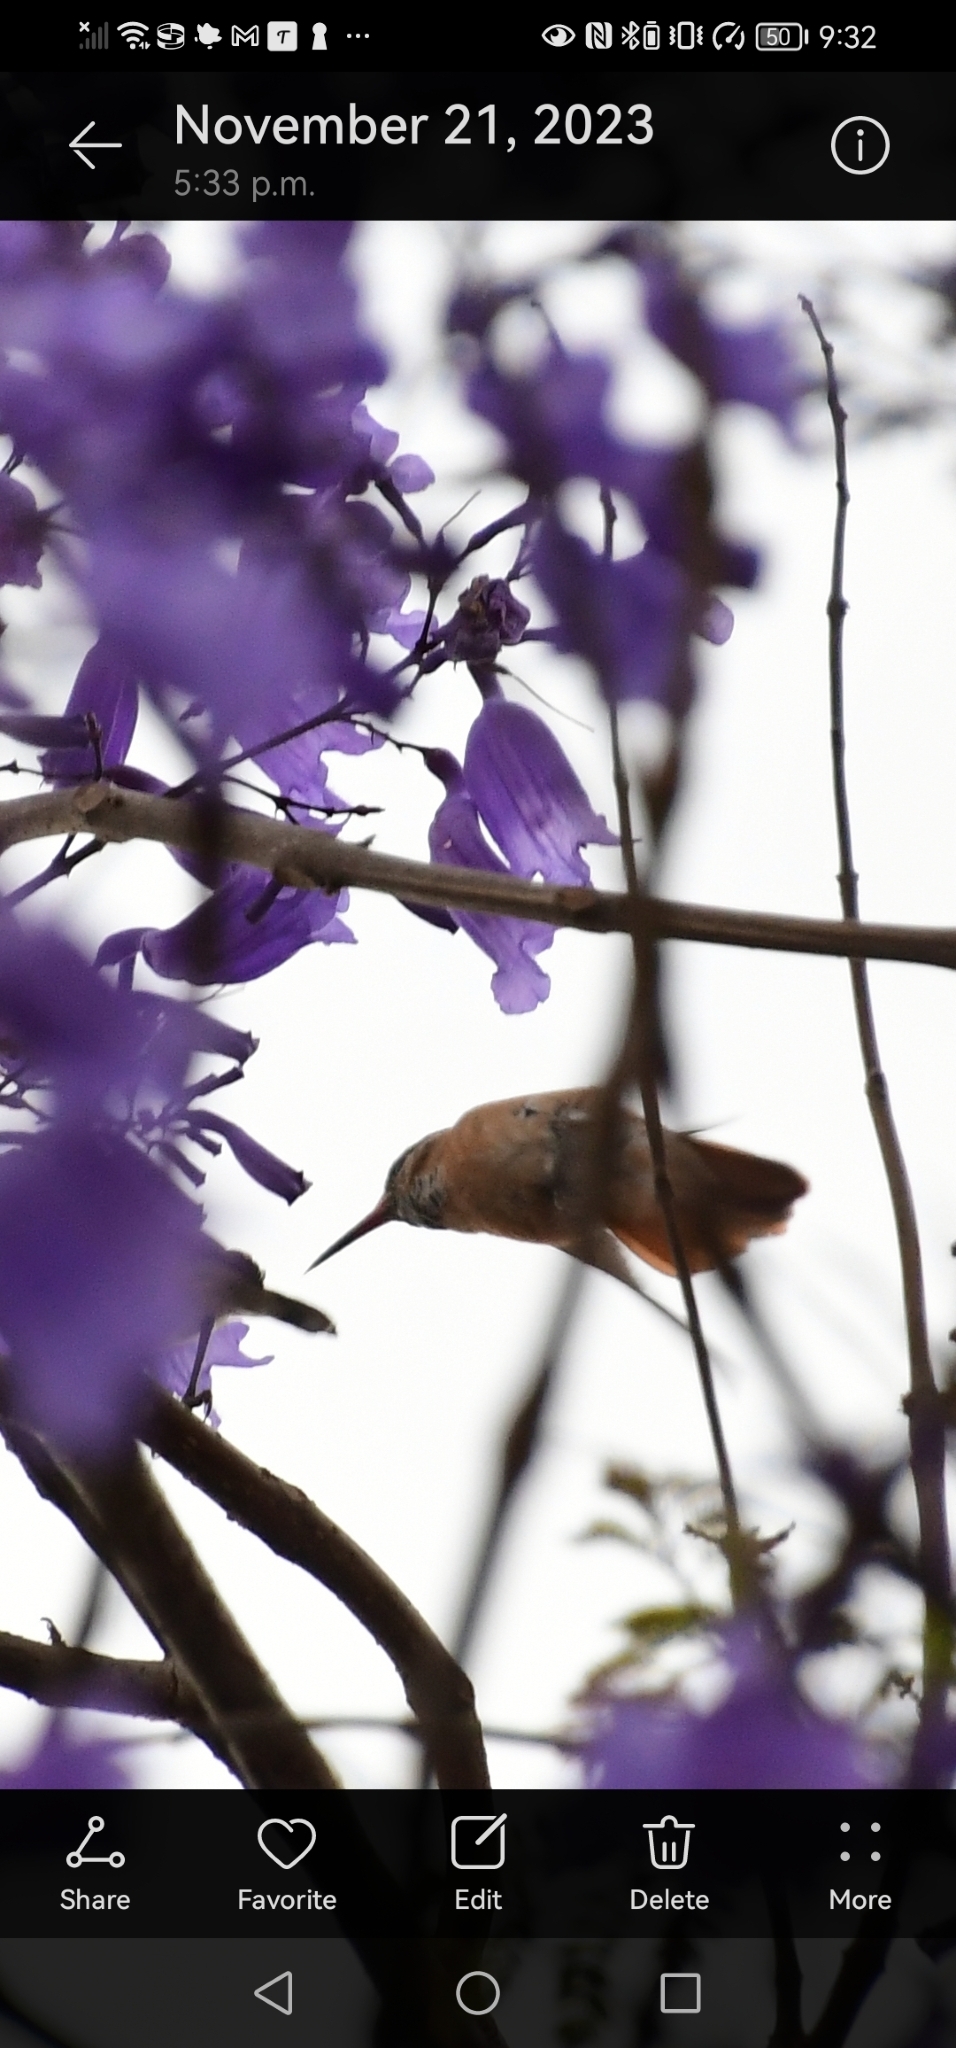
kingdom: Animalia
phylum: Chordata
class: Aves
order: Apodiformes
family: Trochilidae
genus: Amazilis
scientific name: Amazilis amazilia
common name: Amazilia hummingbird
